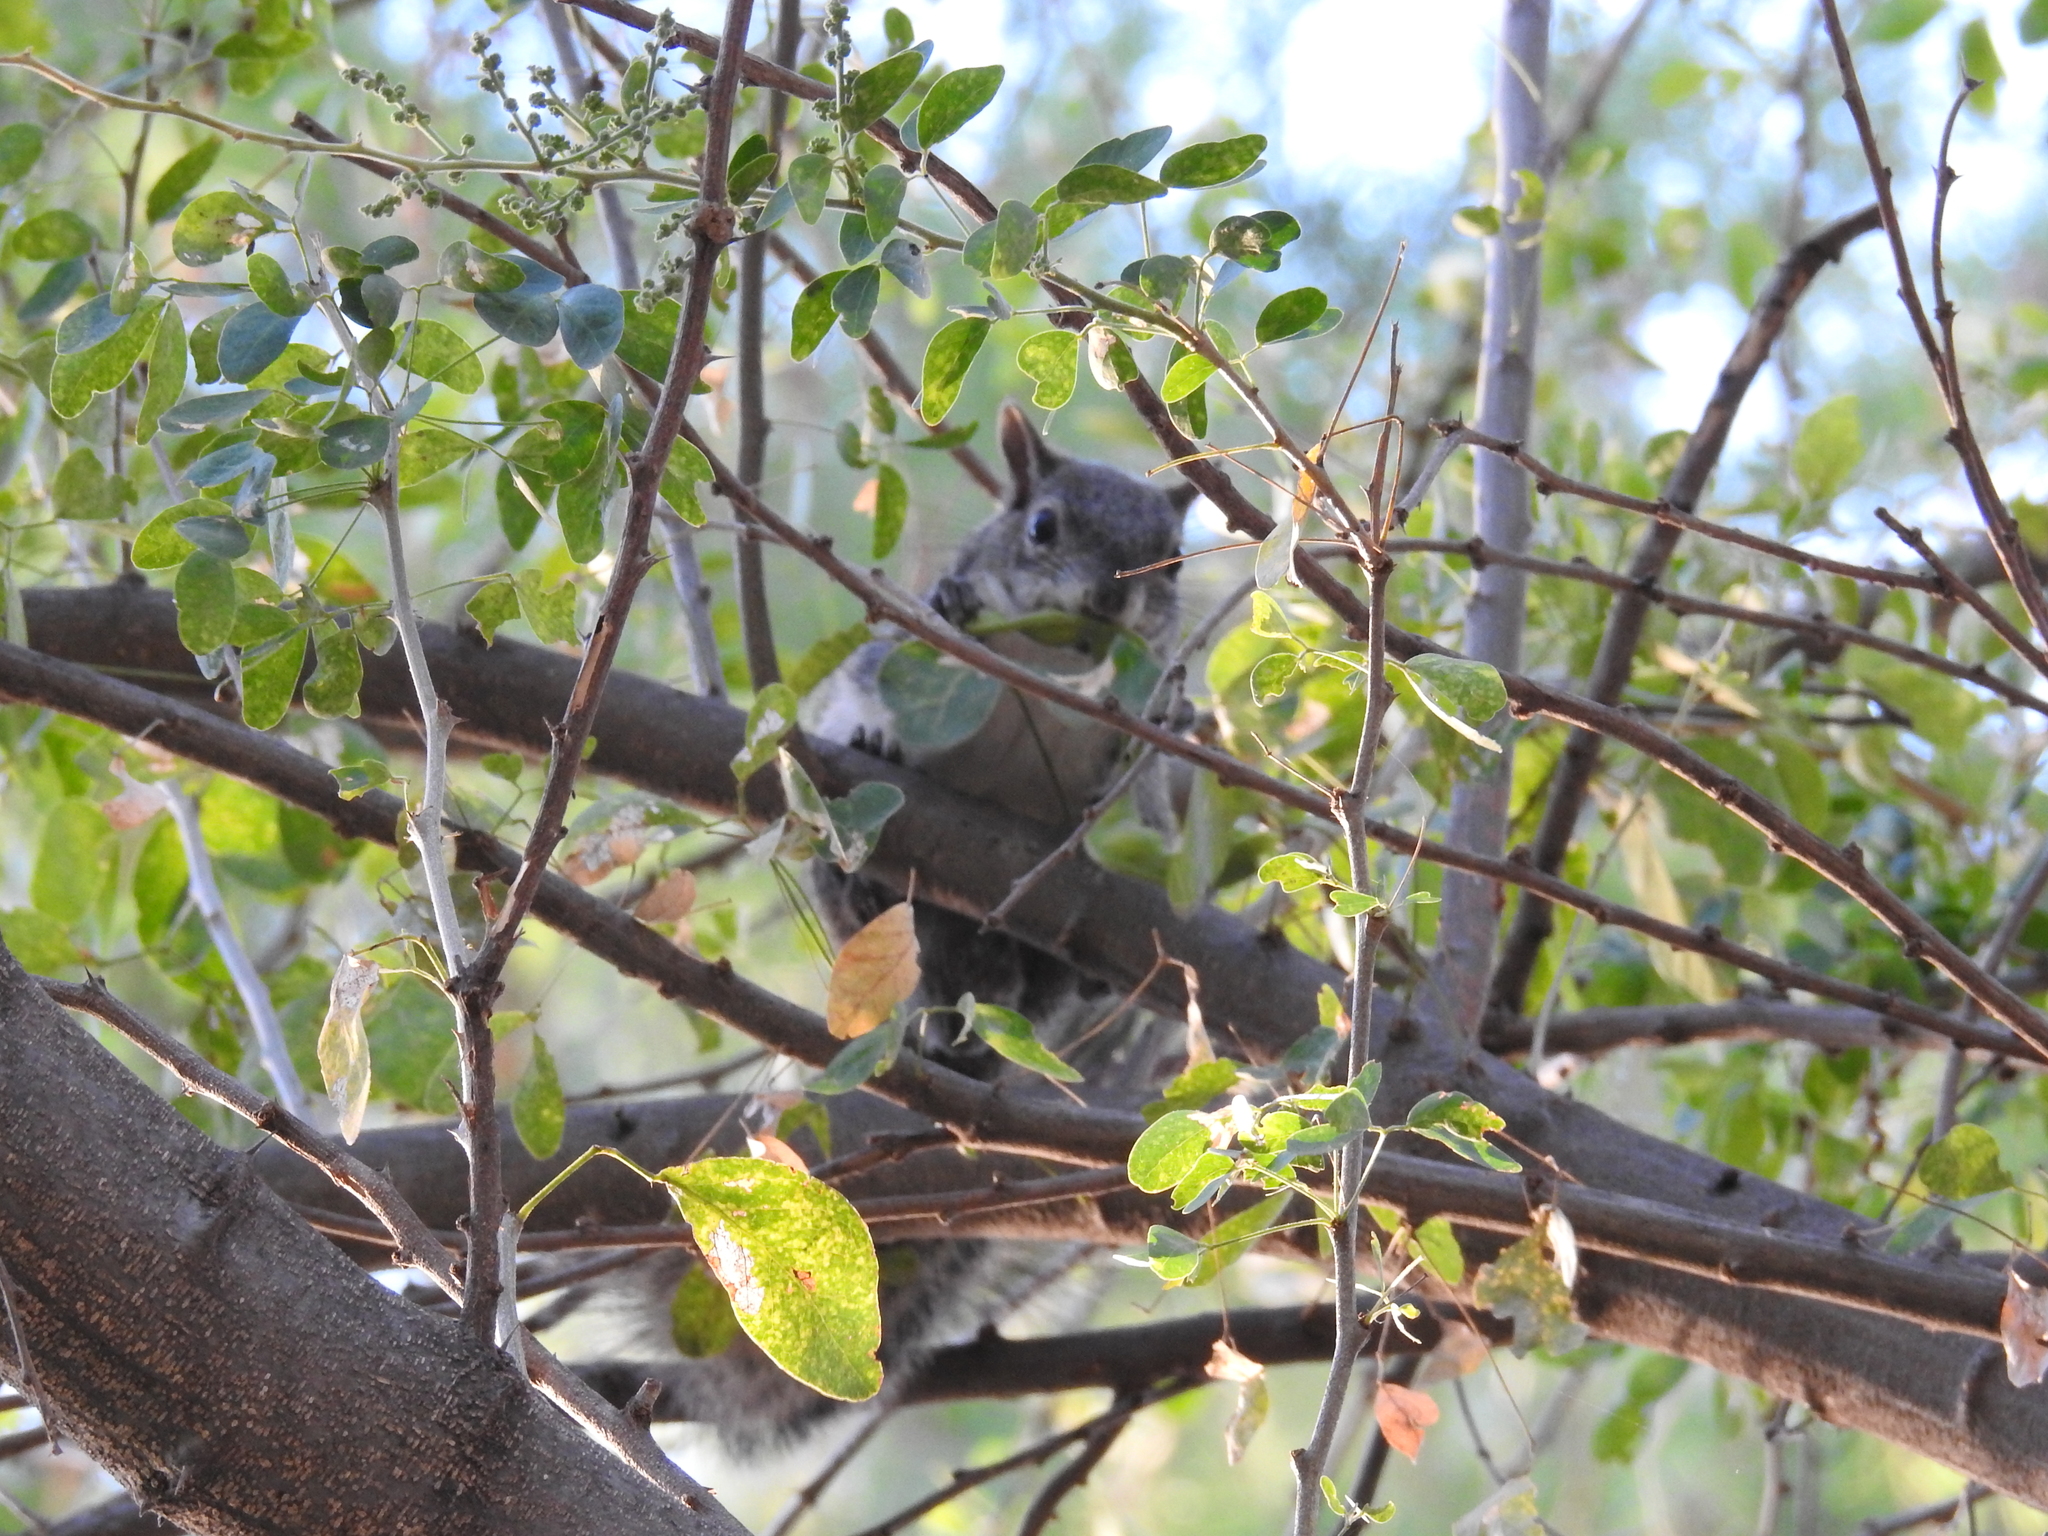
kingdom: Animalia
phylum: Chordata
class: Mammalia
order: Rodentia
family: Sciuridae
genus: Sciurus
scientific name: Sciurus colliaei
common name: Collie's squirrel
